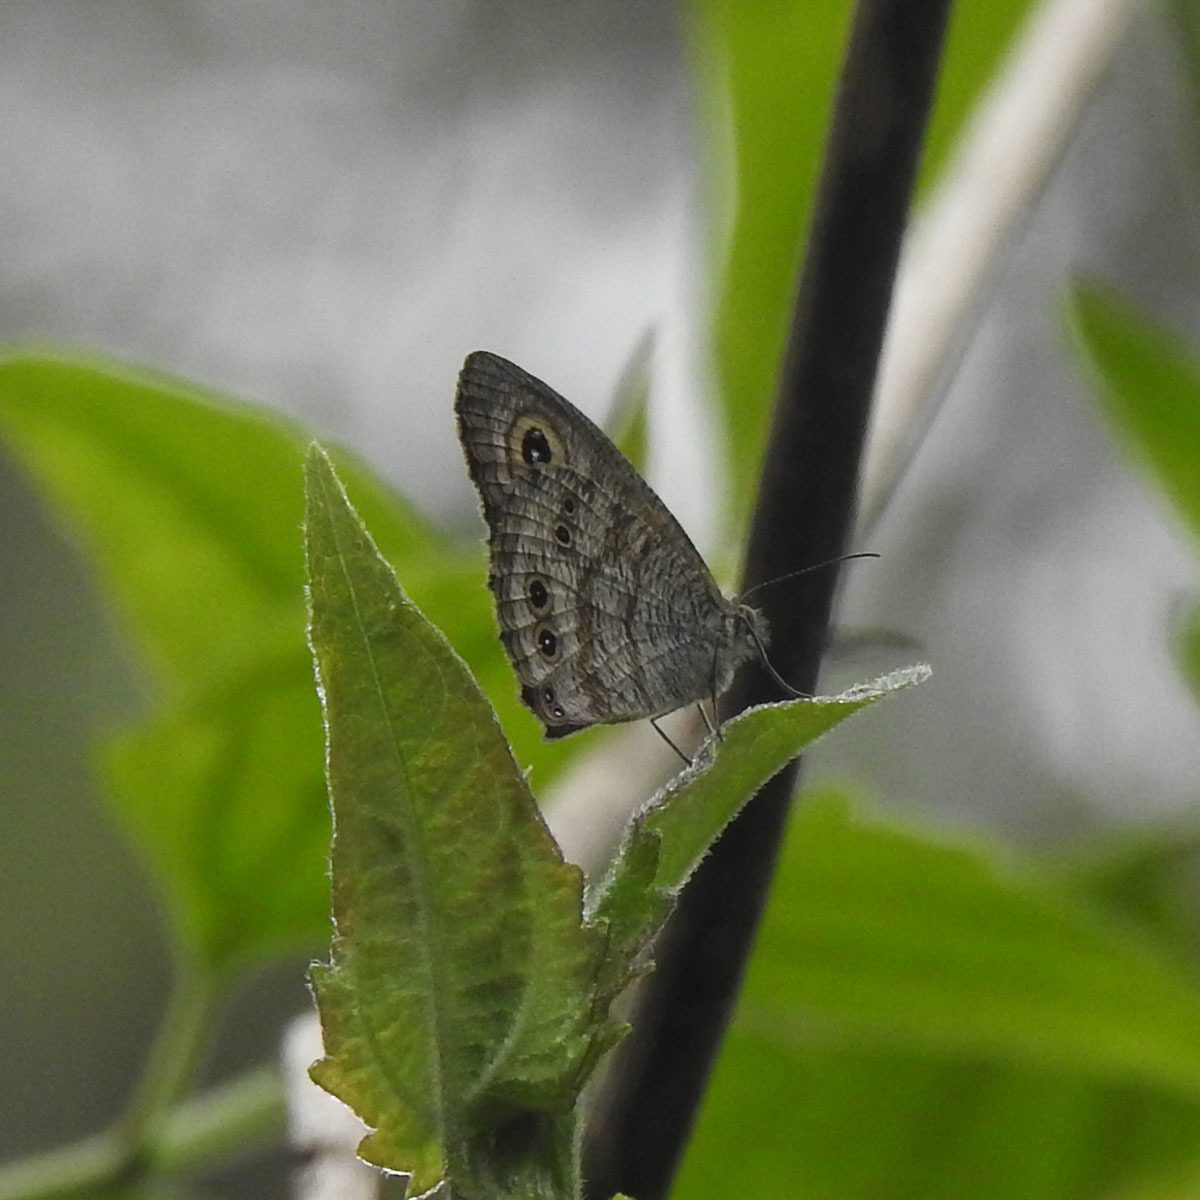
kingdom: Animalia
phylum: Arthropoda
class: Insecta
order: Lepidoptera
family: Nymphalidae
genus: Ypthima
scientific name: Ypthima baldus
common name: Common five-ring
